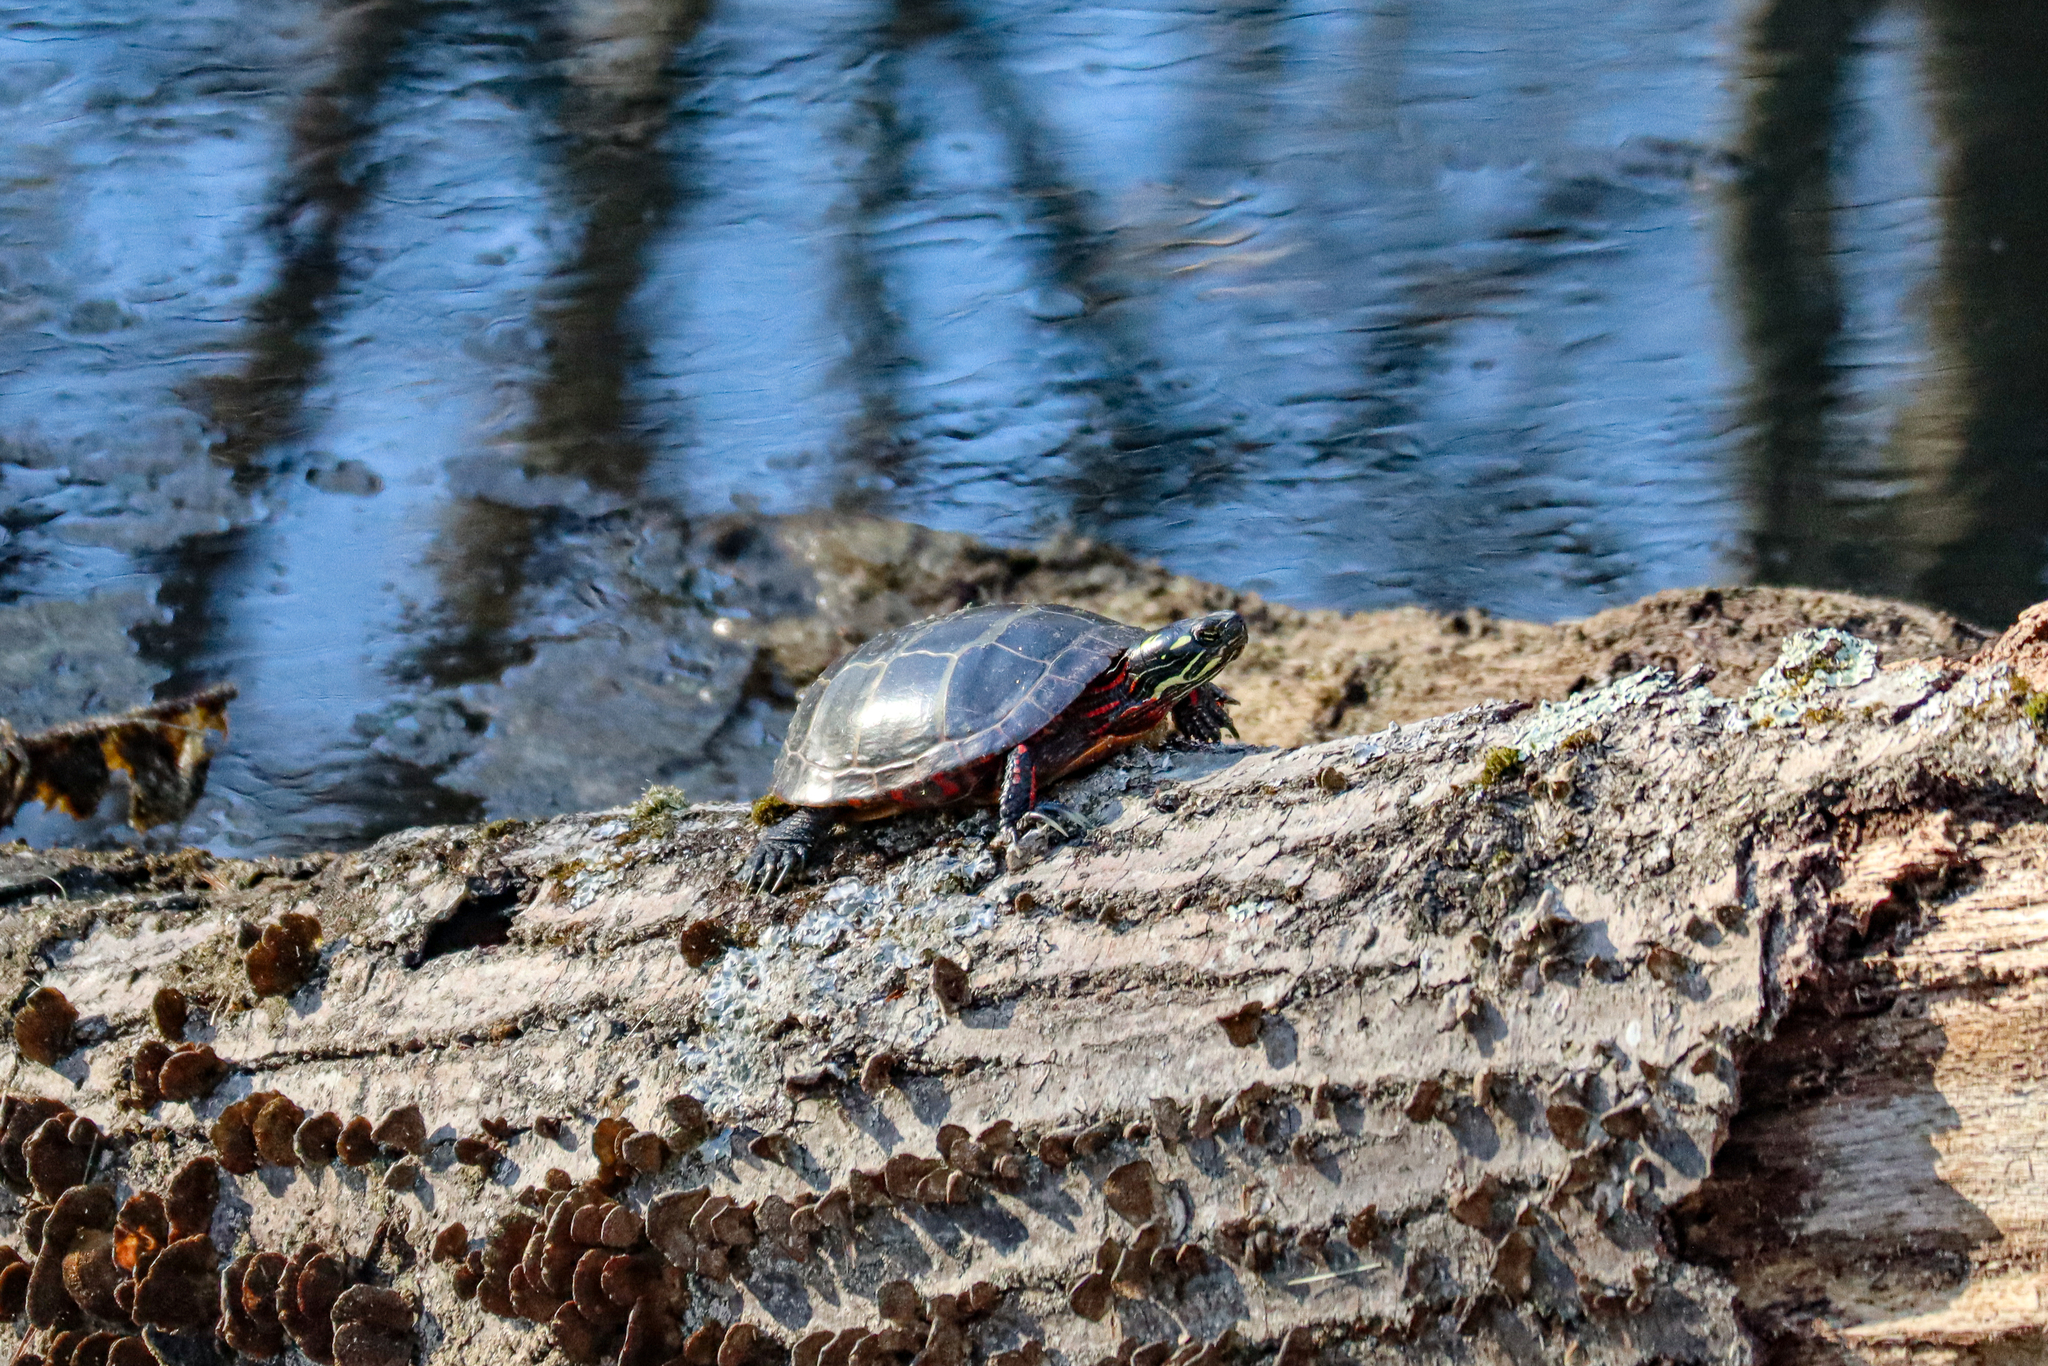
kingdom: Animalia
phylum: Chordata
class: Testudines
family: Emydidae
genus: Chrysemys
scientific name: Chrysemys picta
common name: Painted turtle
